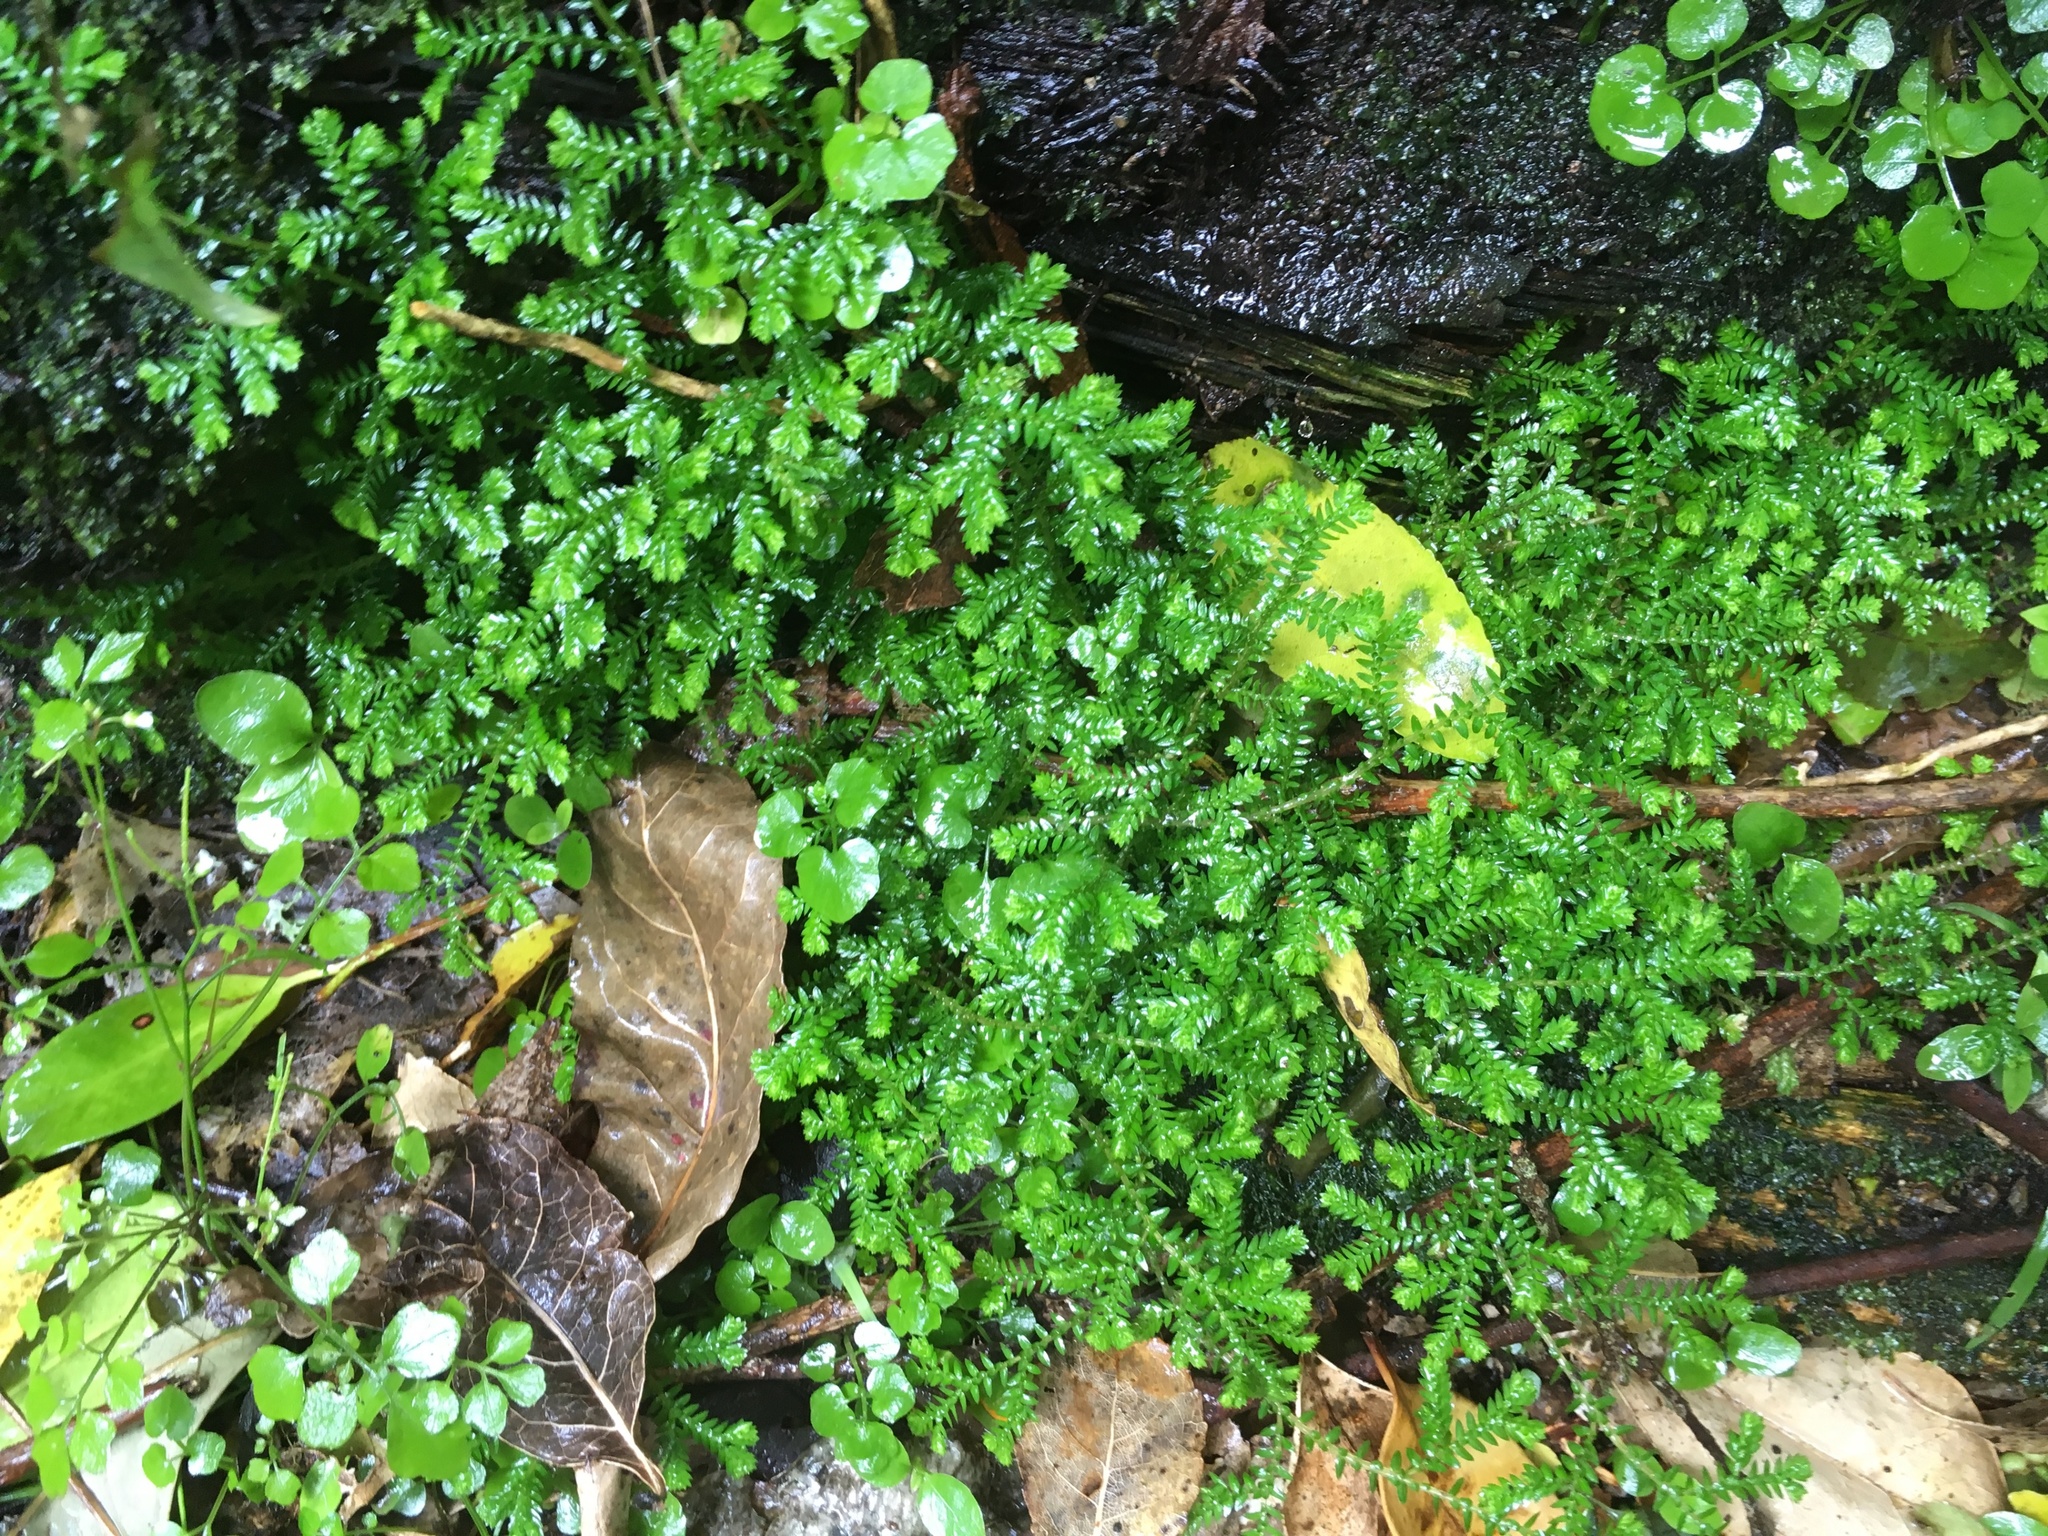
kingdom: Plantae
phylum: Tracheophyta
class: Lycopodiopsida
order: Selaginellales
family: Selaginellaceae
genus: Selaginella
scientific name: Selaginella kraussiana
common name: Krauss' spikemoss
